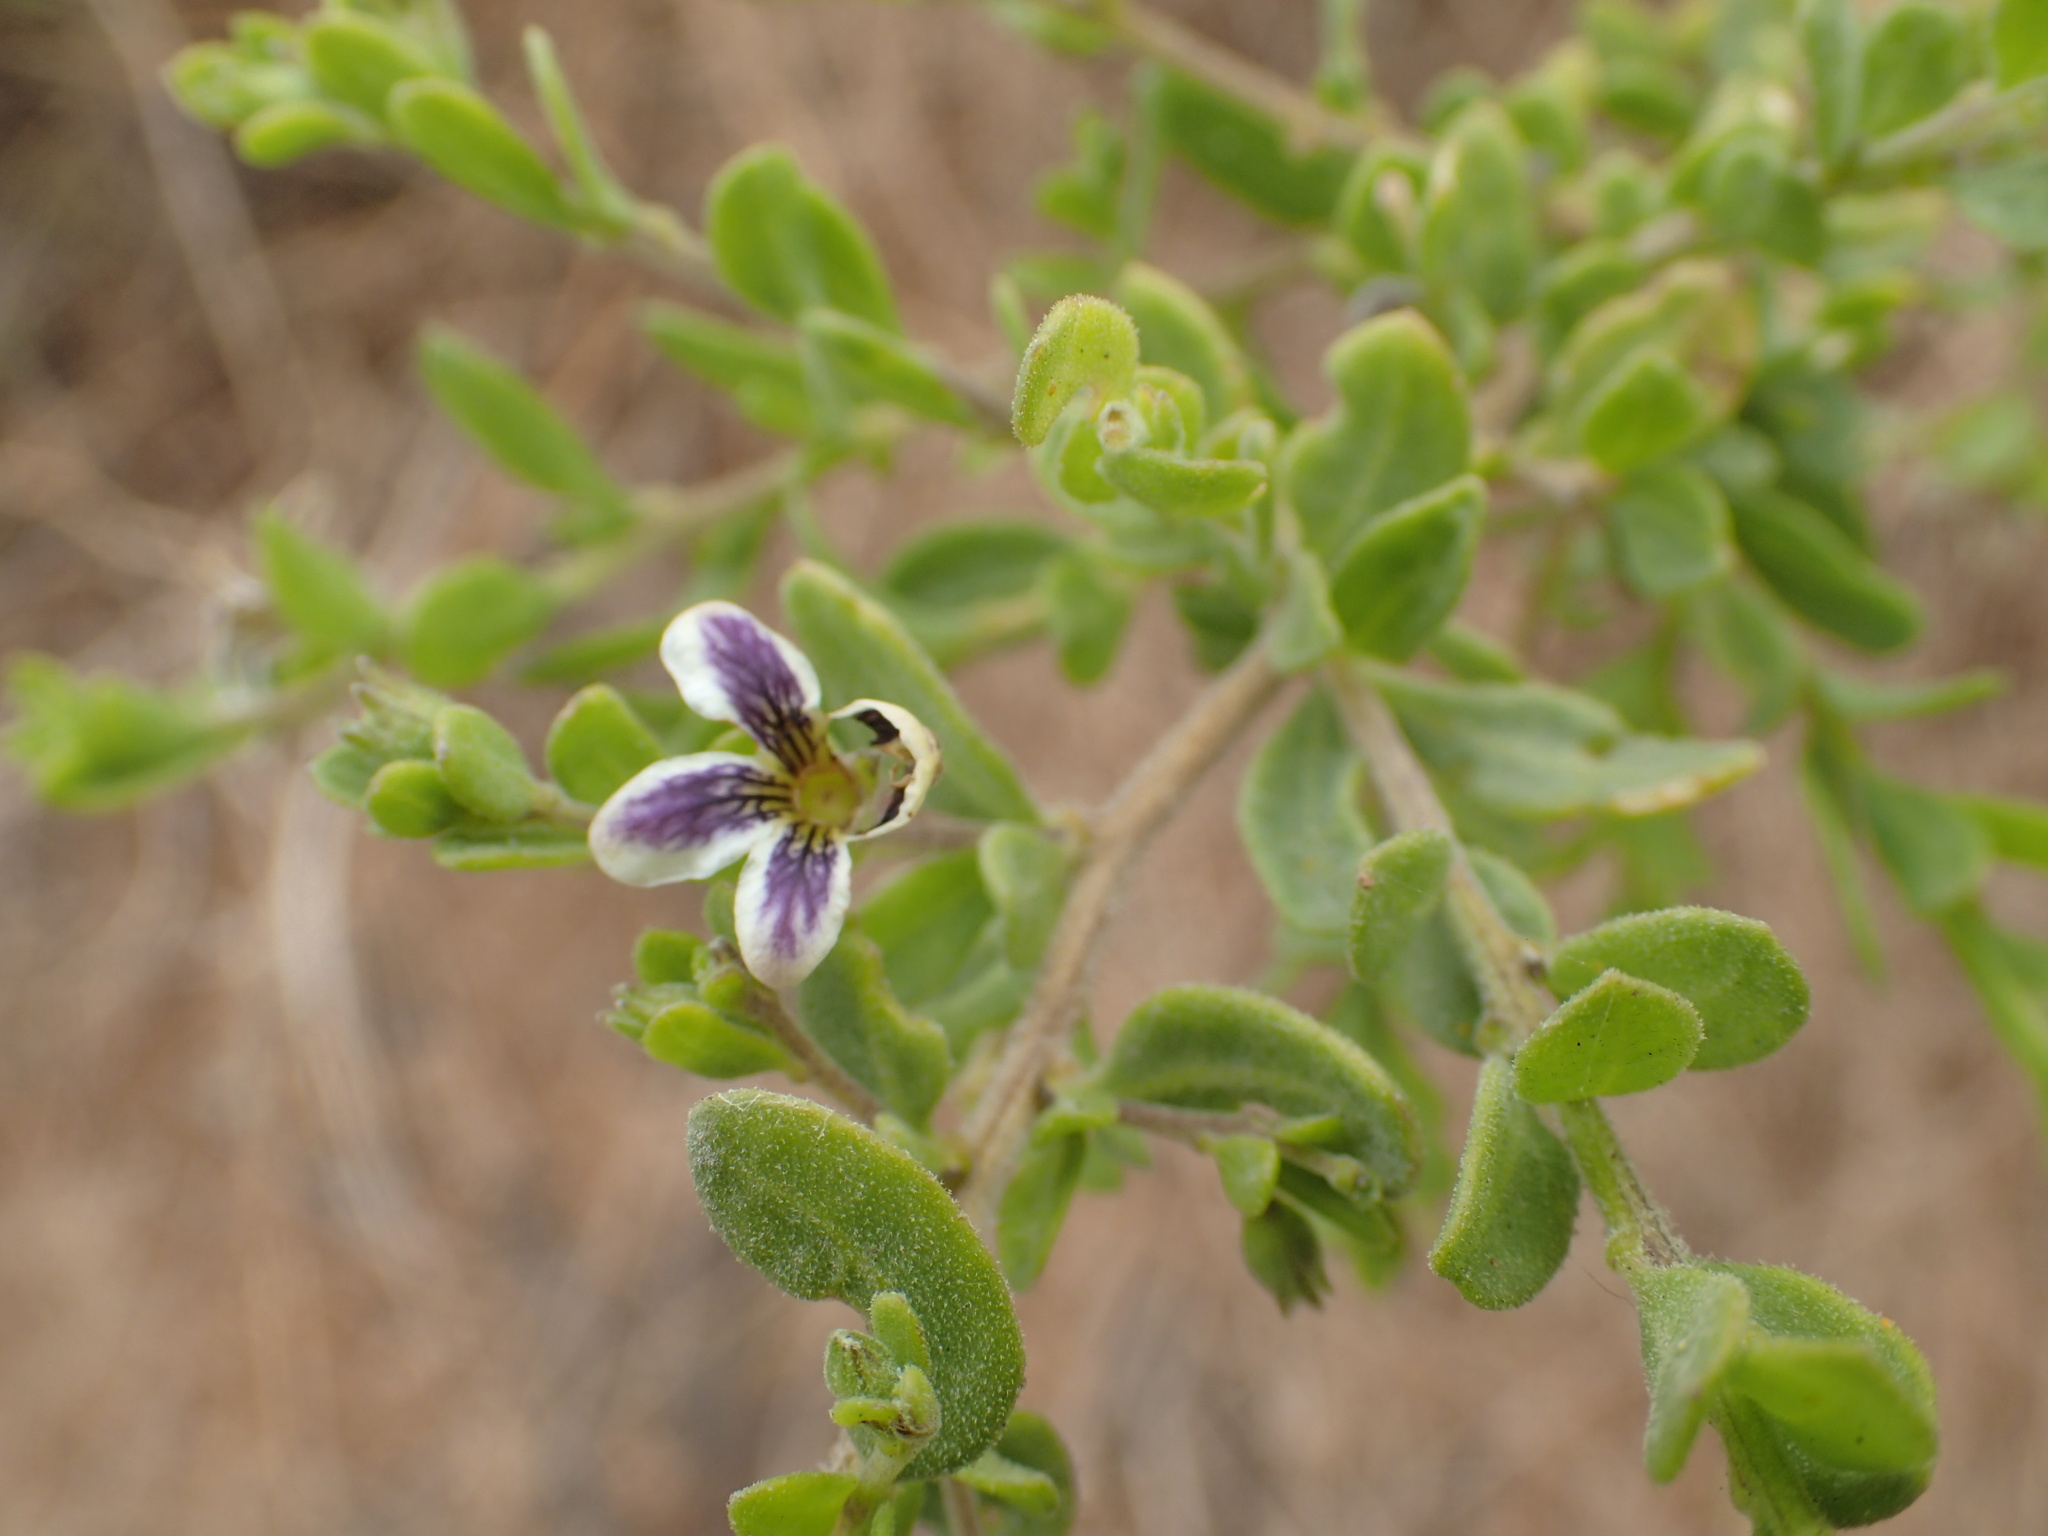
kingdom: Plantae
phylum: Tracheophyta
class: Magnoliopsida
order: Solanales
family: Solanaceae
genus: Lycium
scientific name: Lycium chilense
